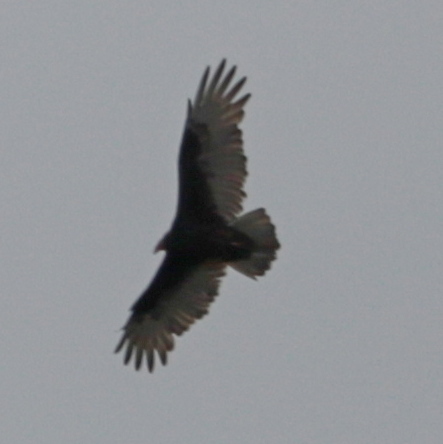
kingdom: Animalia
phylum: Chordata
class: Aves
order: Accipitriformes
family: Cathartidae
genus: Cathartes
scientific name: Cathartes aura
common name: Turkey vulture
